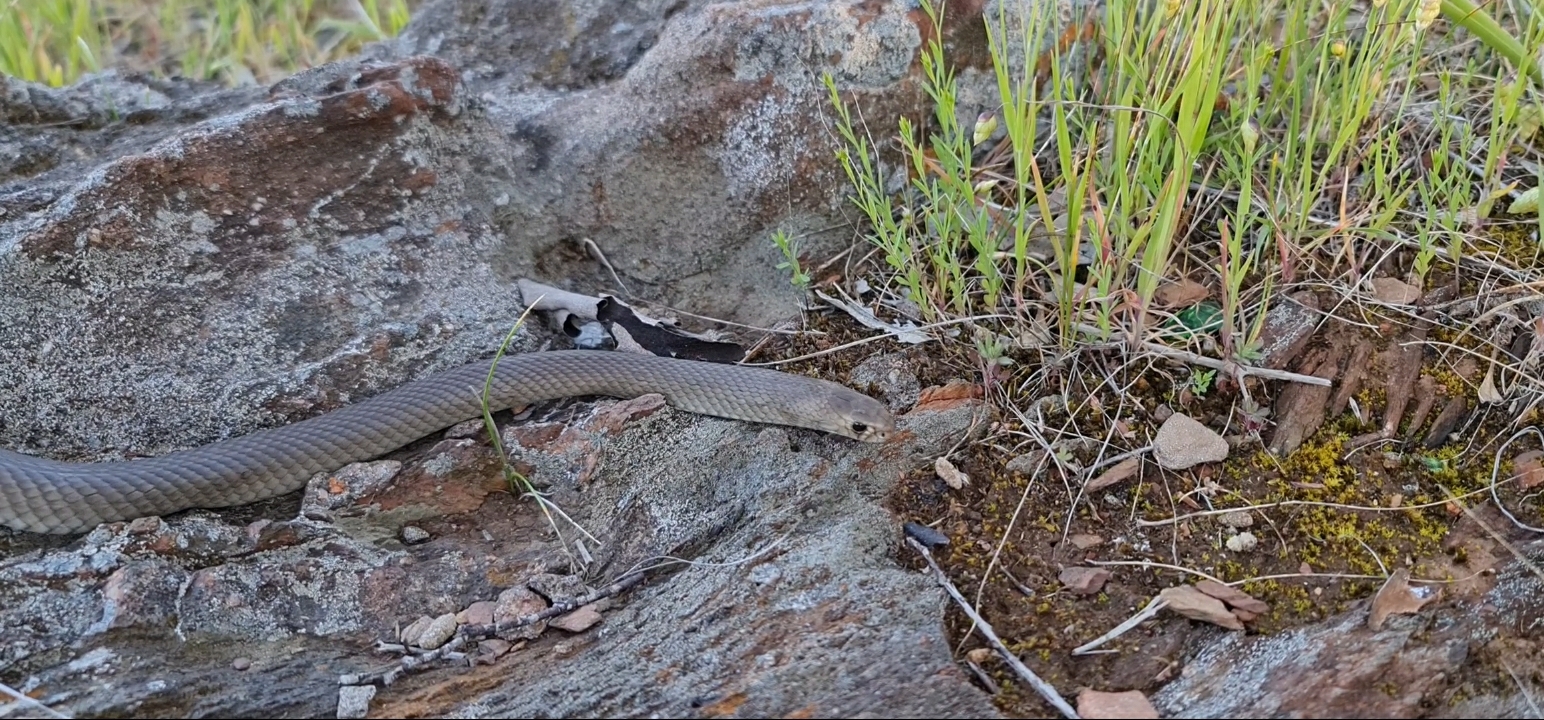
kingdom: Animalia
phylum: Chordata
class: Squamata
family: Elapidae
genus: Pseudonaja
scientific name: Pseudonaja textilis
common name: Eastern brown snake
